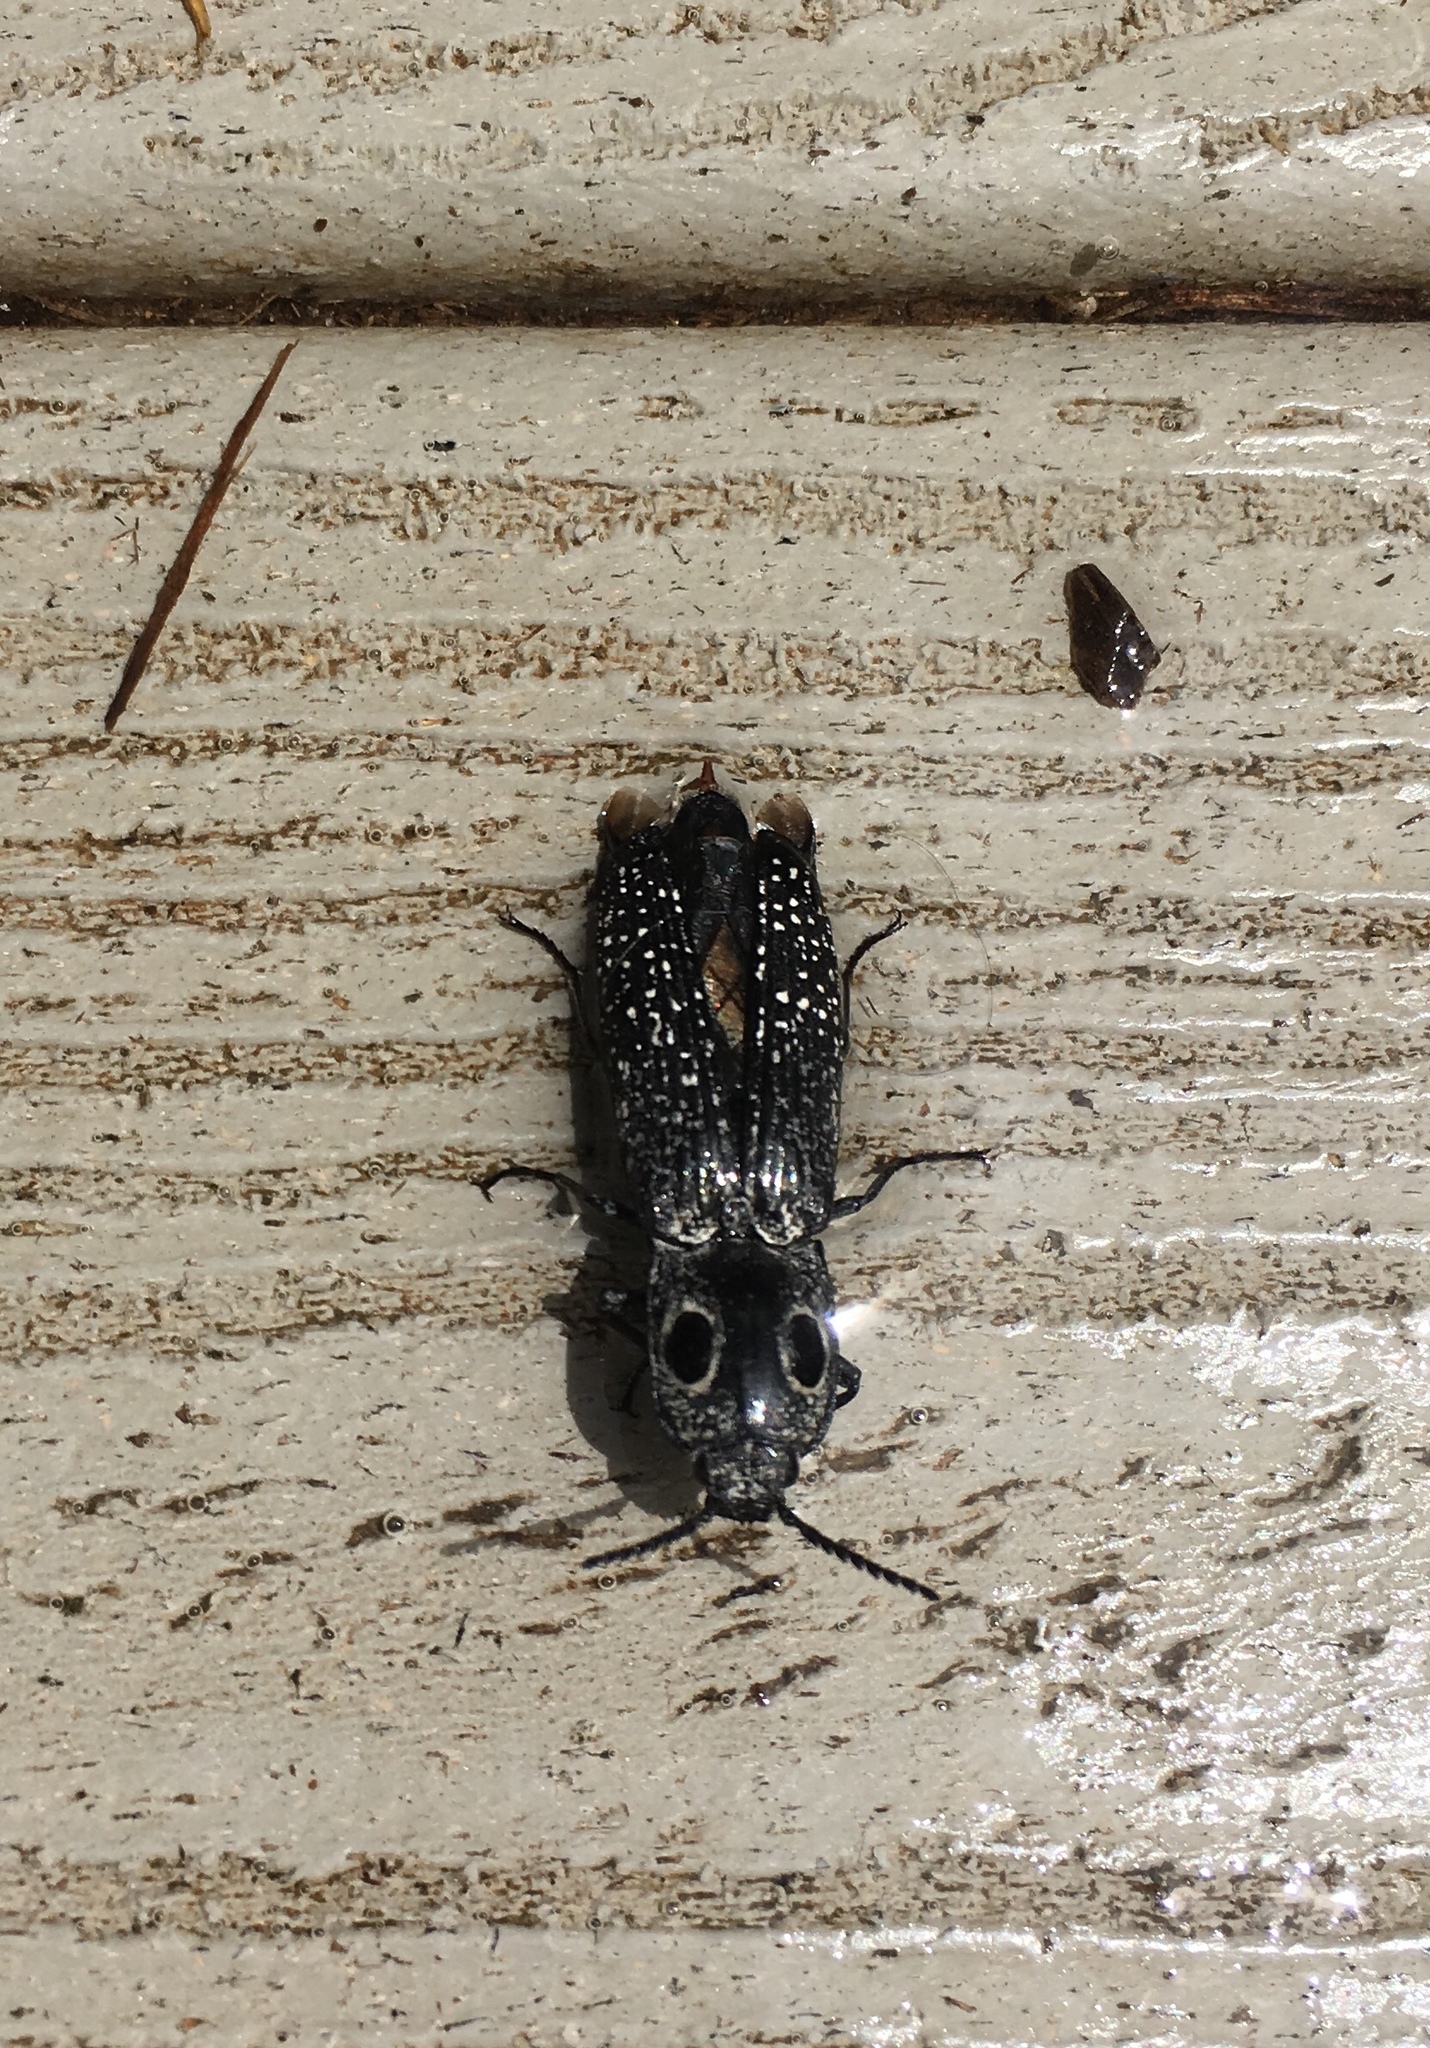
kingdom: Animalia
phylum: Arthropoda
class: Insecta
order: Coleoptera
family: Elateridae
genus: Alaus
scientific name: Alaus oculatus
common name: Eastern eyed click beetle
